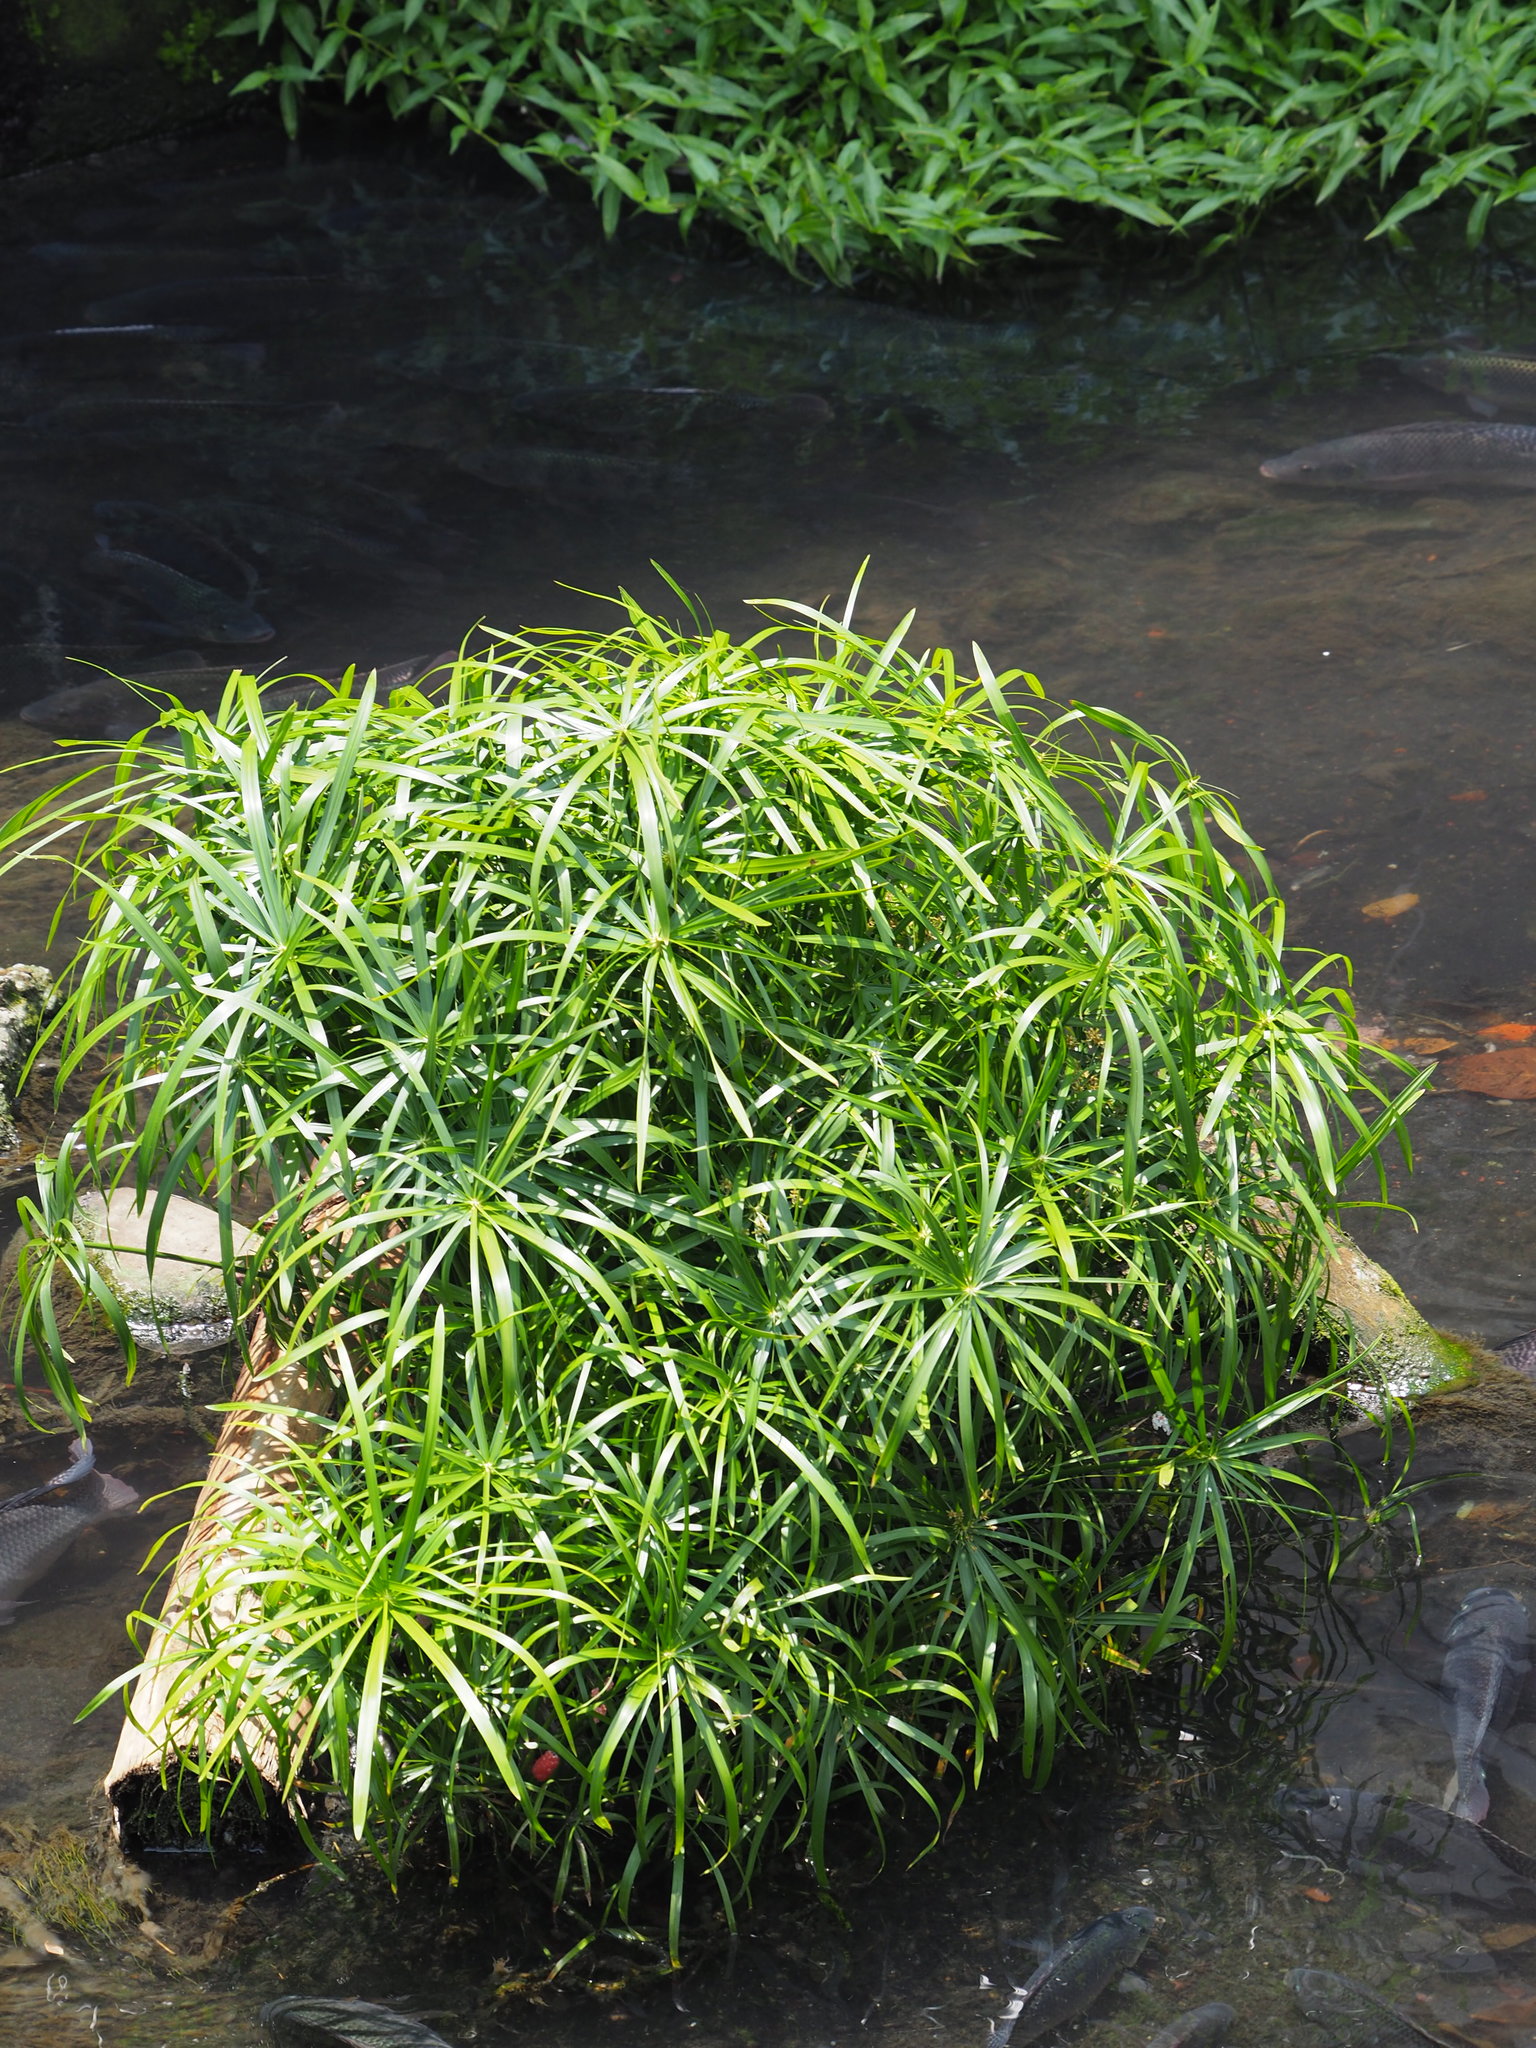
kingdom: Plantae
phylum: Tracheophyta
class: Liliopsida
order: Poales
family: Cyperaceae
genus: Cyperus
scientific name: Cyperus alternifolius
